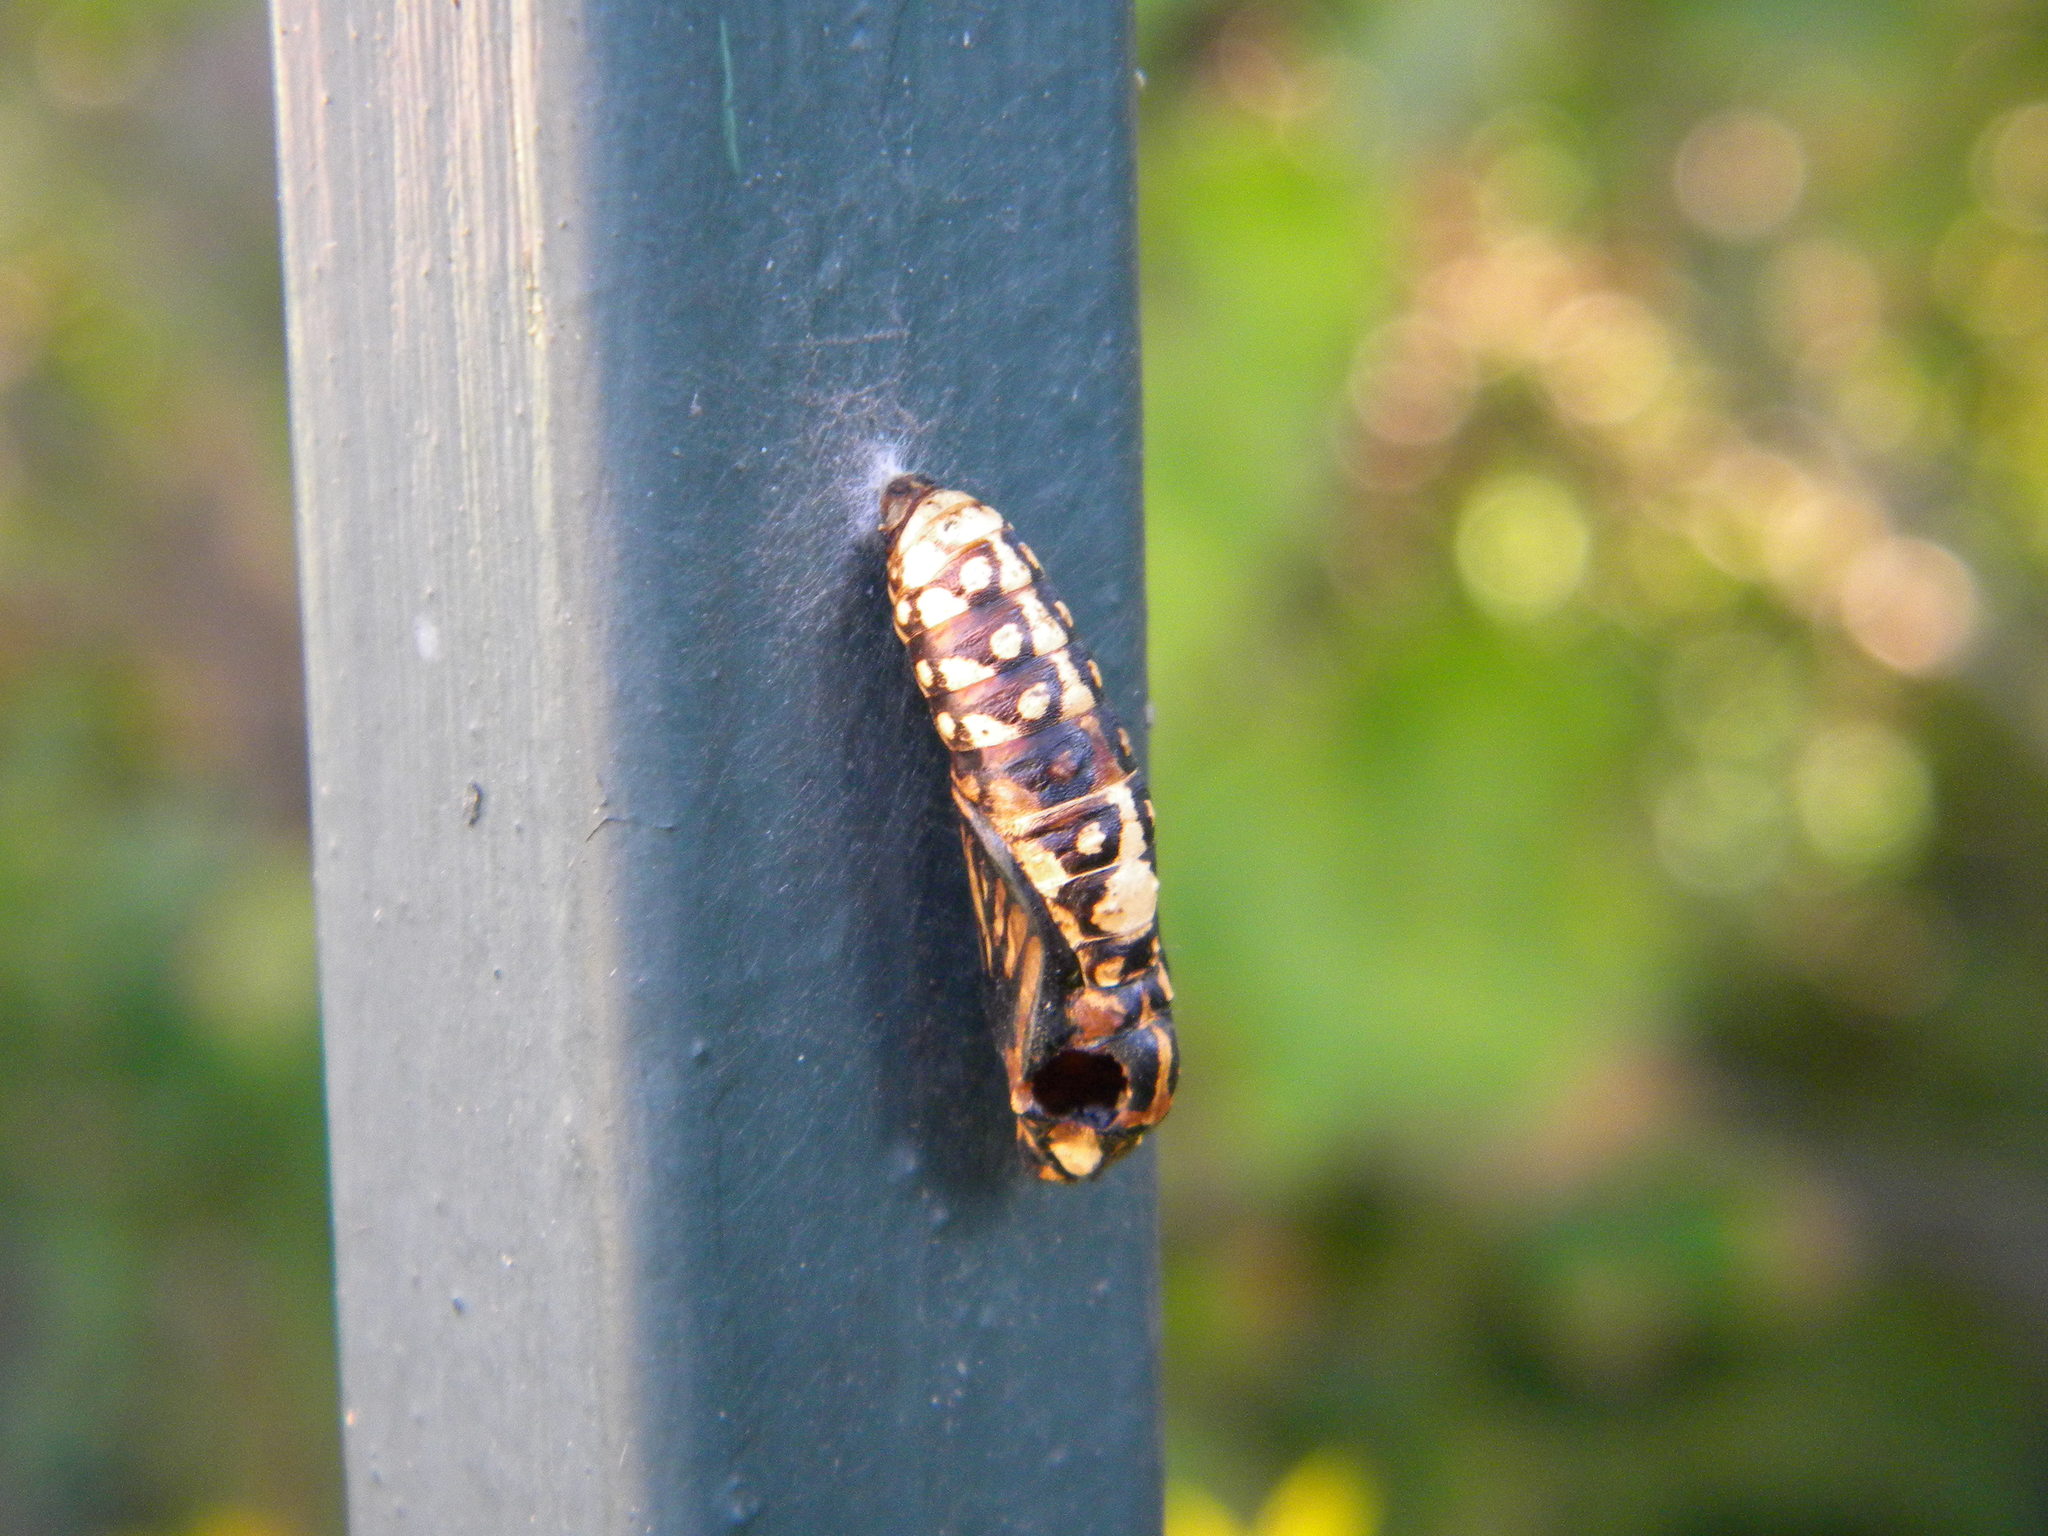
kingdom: Animalia
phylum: Arthropoda
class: Insecta
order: Lepidoptera
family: Nymphalidae
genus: Acraea
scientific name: Acraea horta
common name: Garden acraea
